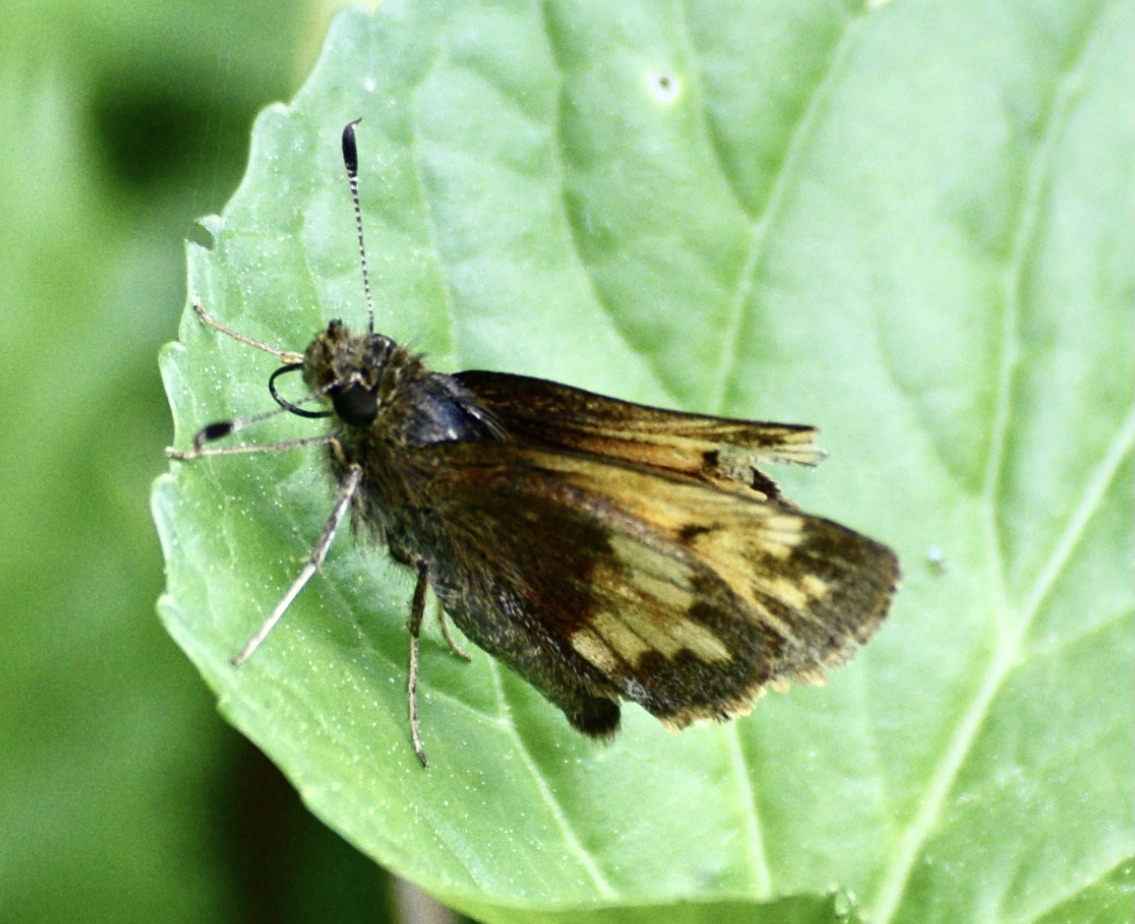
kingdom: Animalia
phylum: Arthropoda
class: Insecta
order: Lepidoptera
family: Hesperiidae
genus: Lon
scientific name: Lon hobomok
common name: Hobomok skipper
